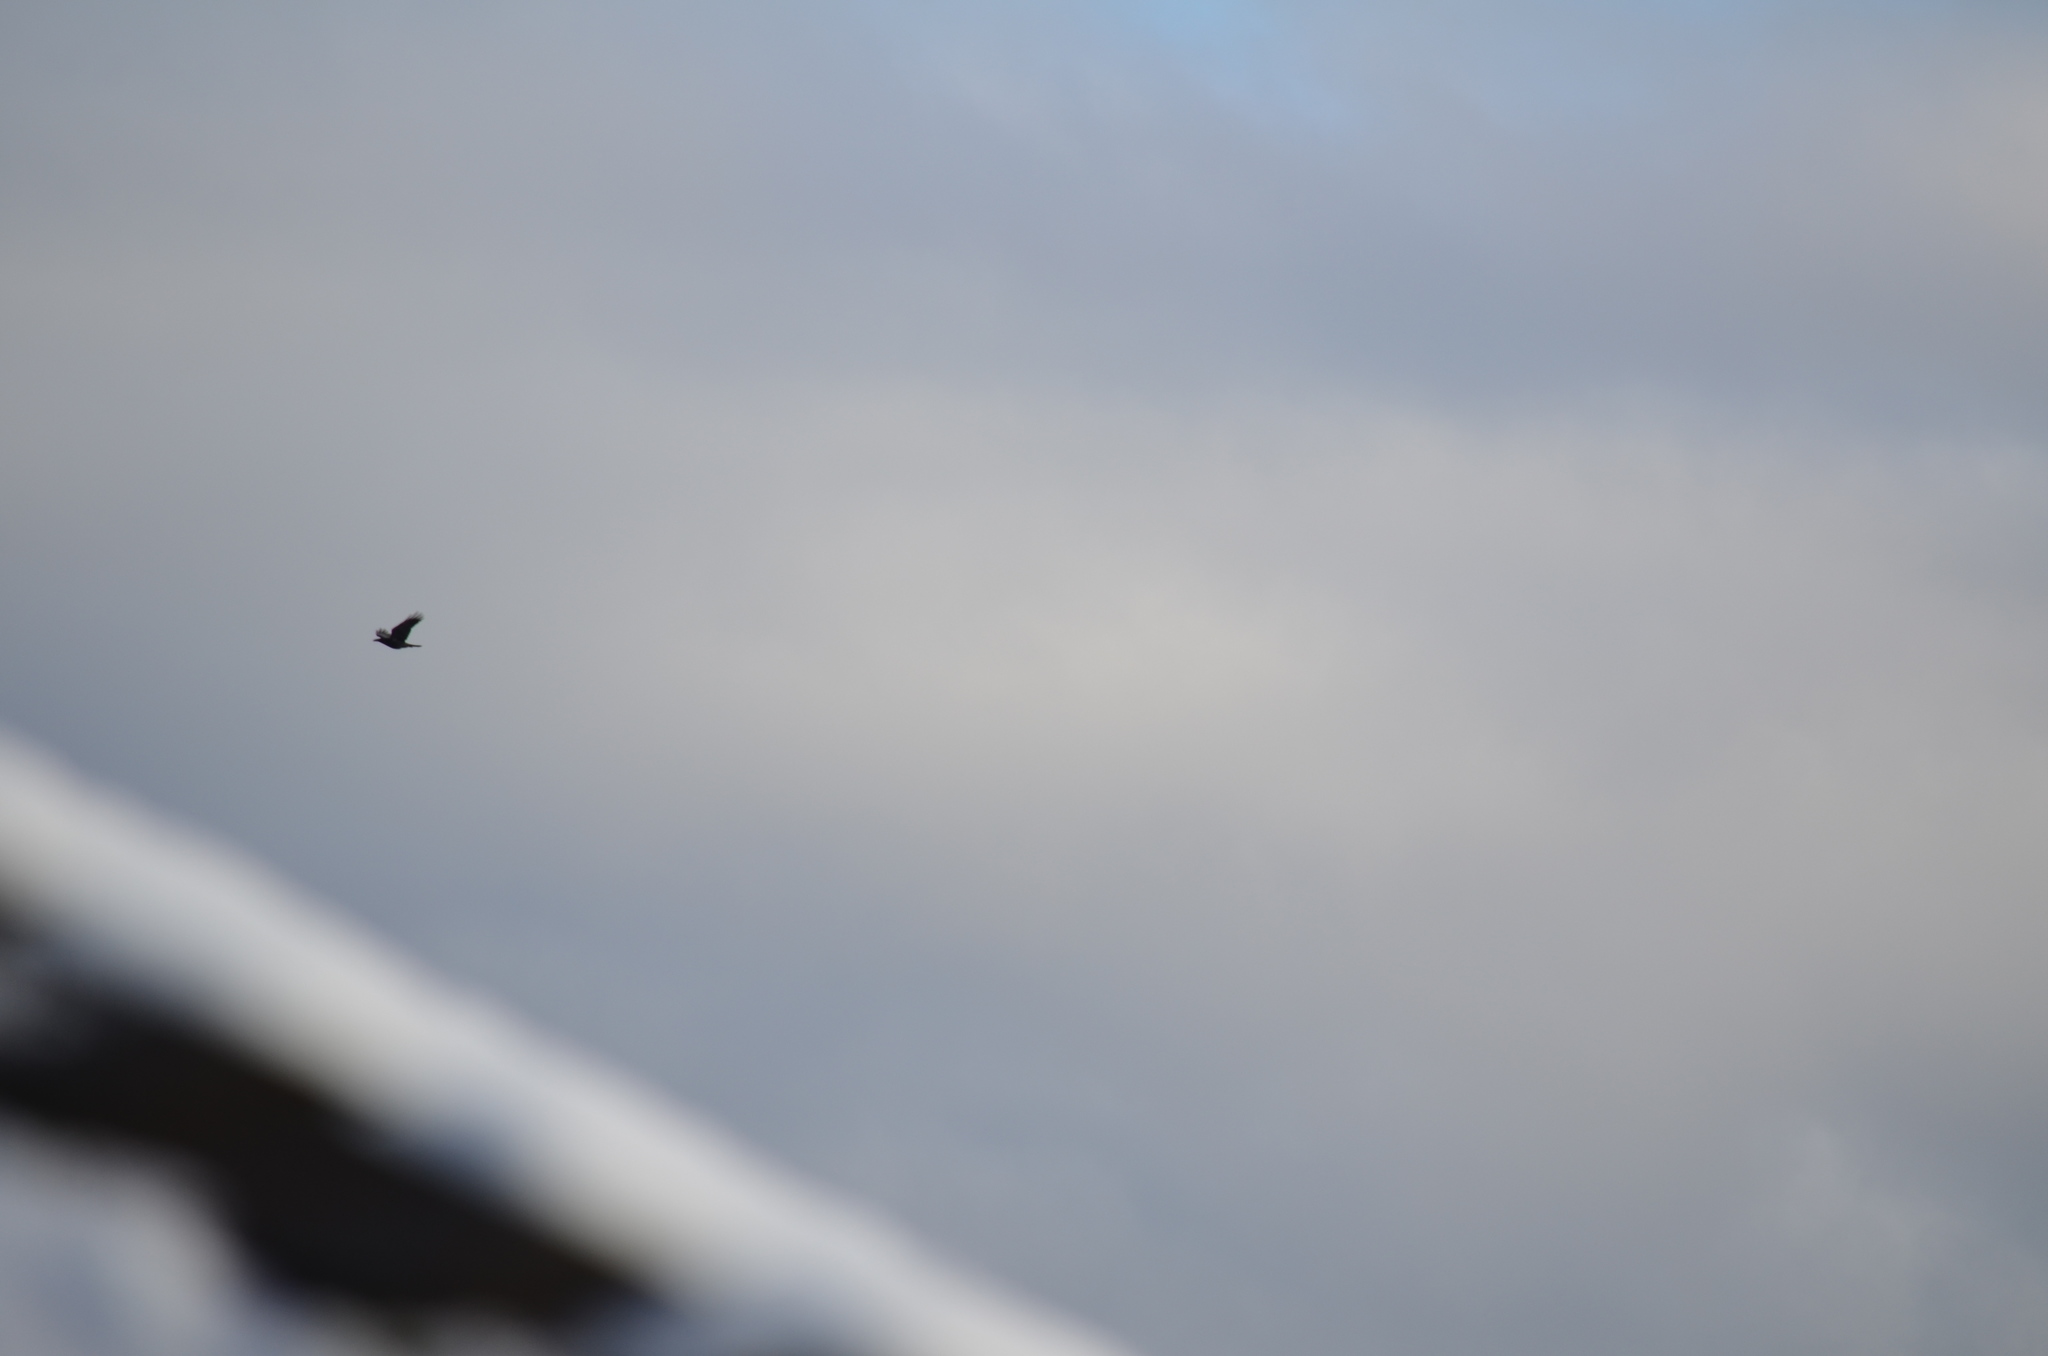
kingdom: Animalia
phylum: Chordata
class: Aves
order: Passeriformes
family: Corvidae
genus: Corvus
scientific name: Corvus corax
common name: Common raven
